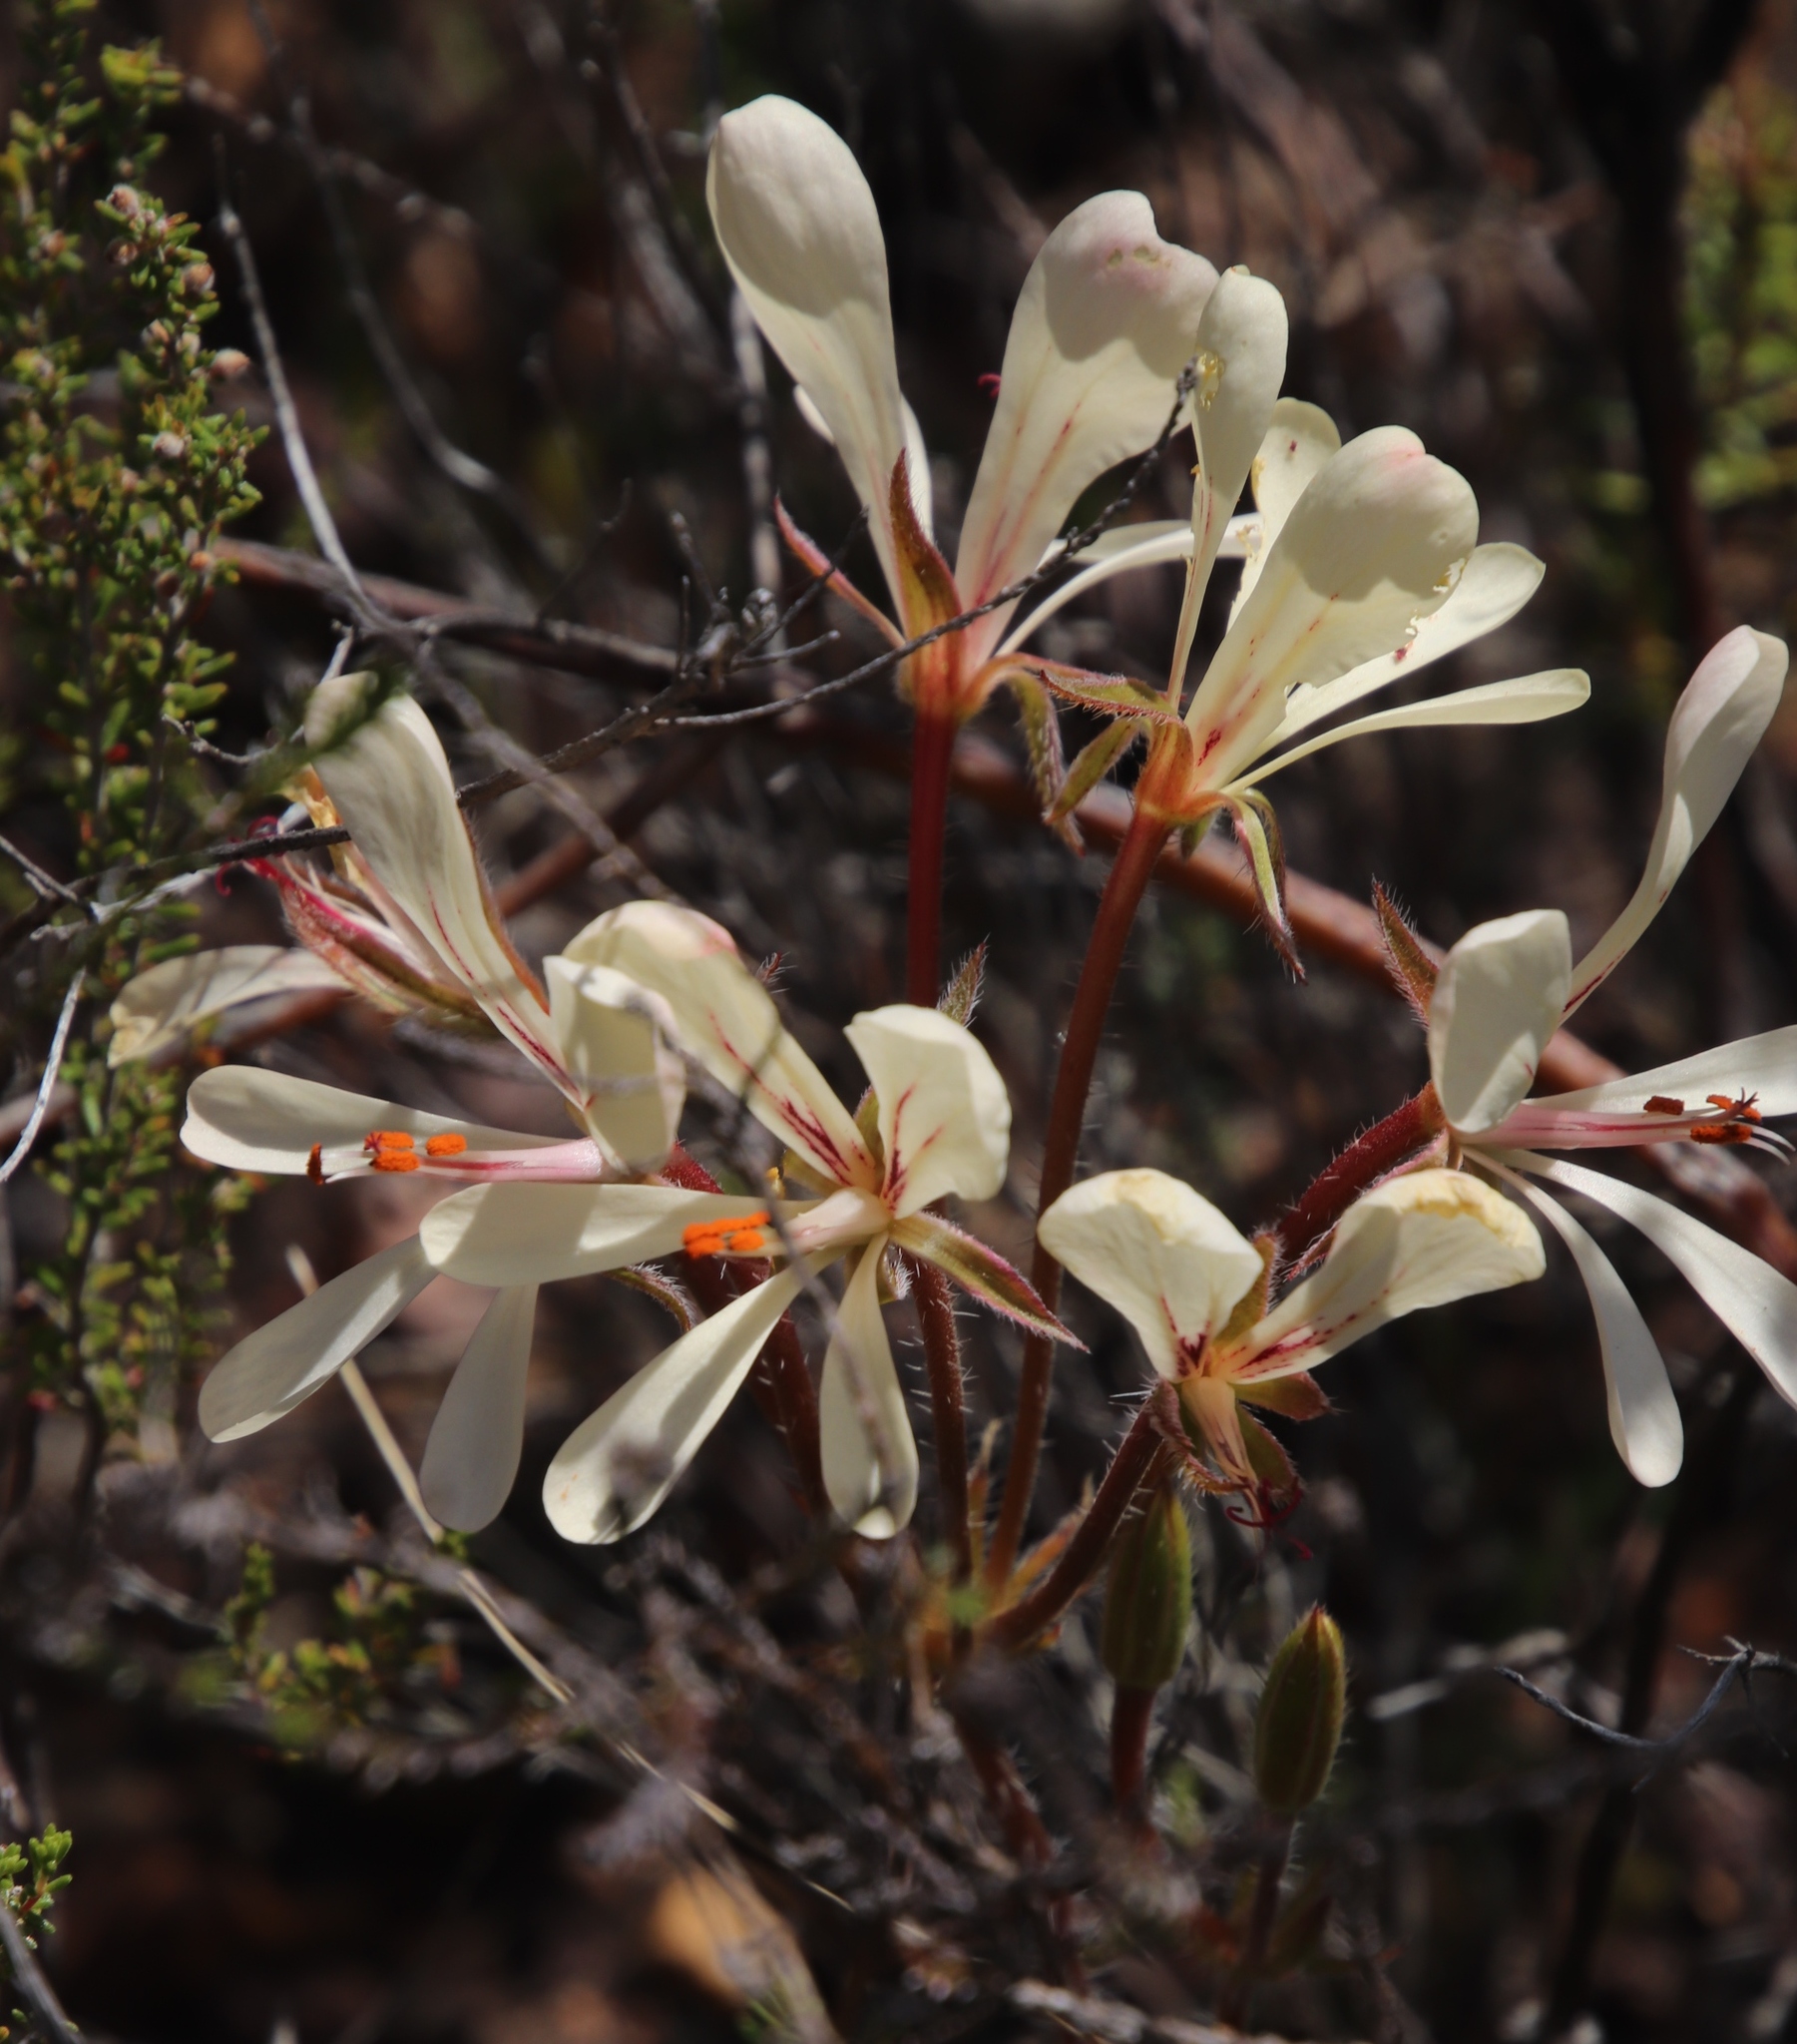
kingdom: Plantae
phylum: Tracheophyta
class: Magnoliopsida
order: Geraniales
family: Geraniaceae
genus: Pelargonium
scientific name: Pelargonium carneum
